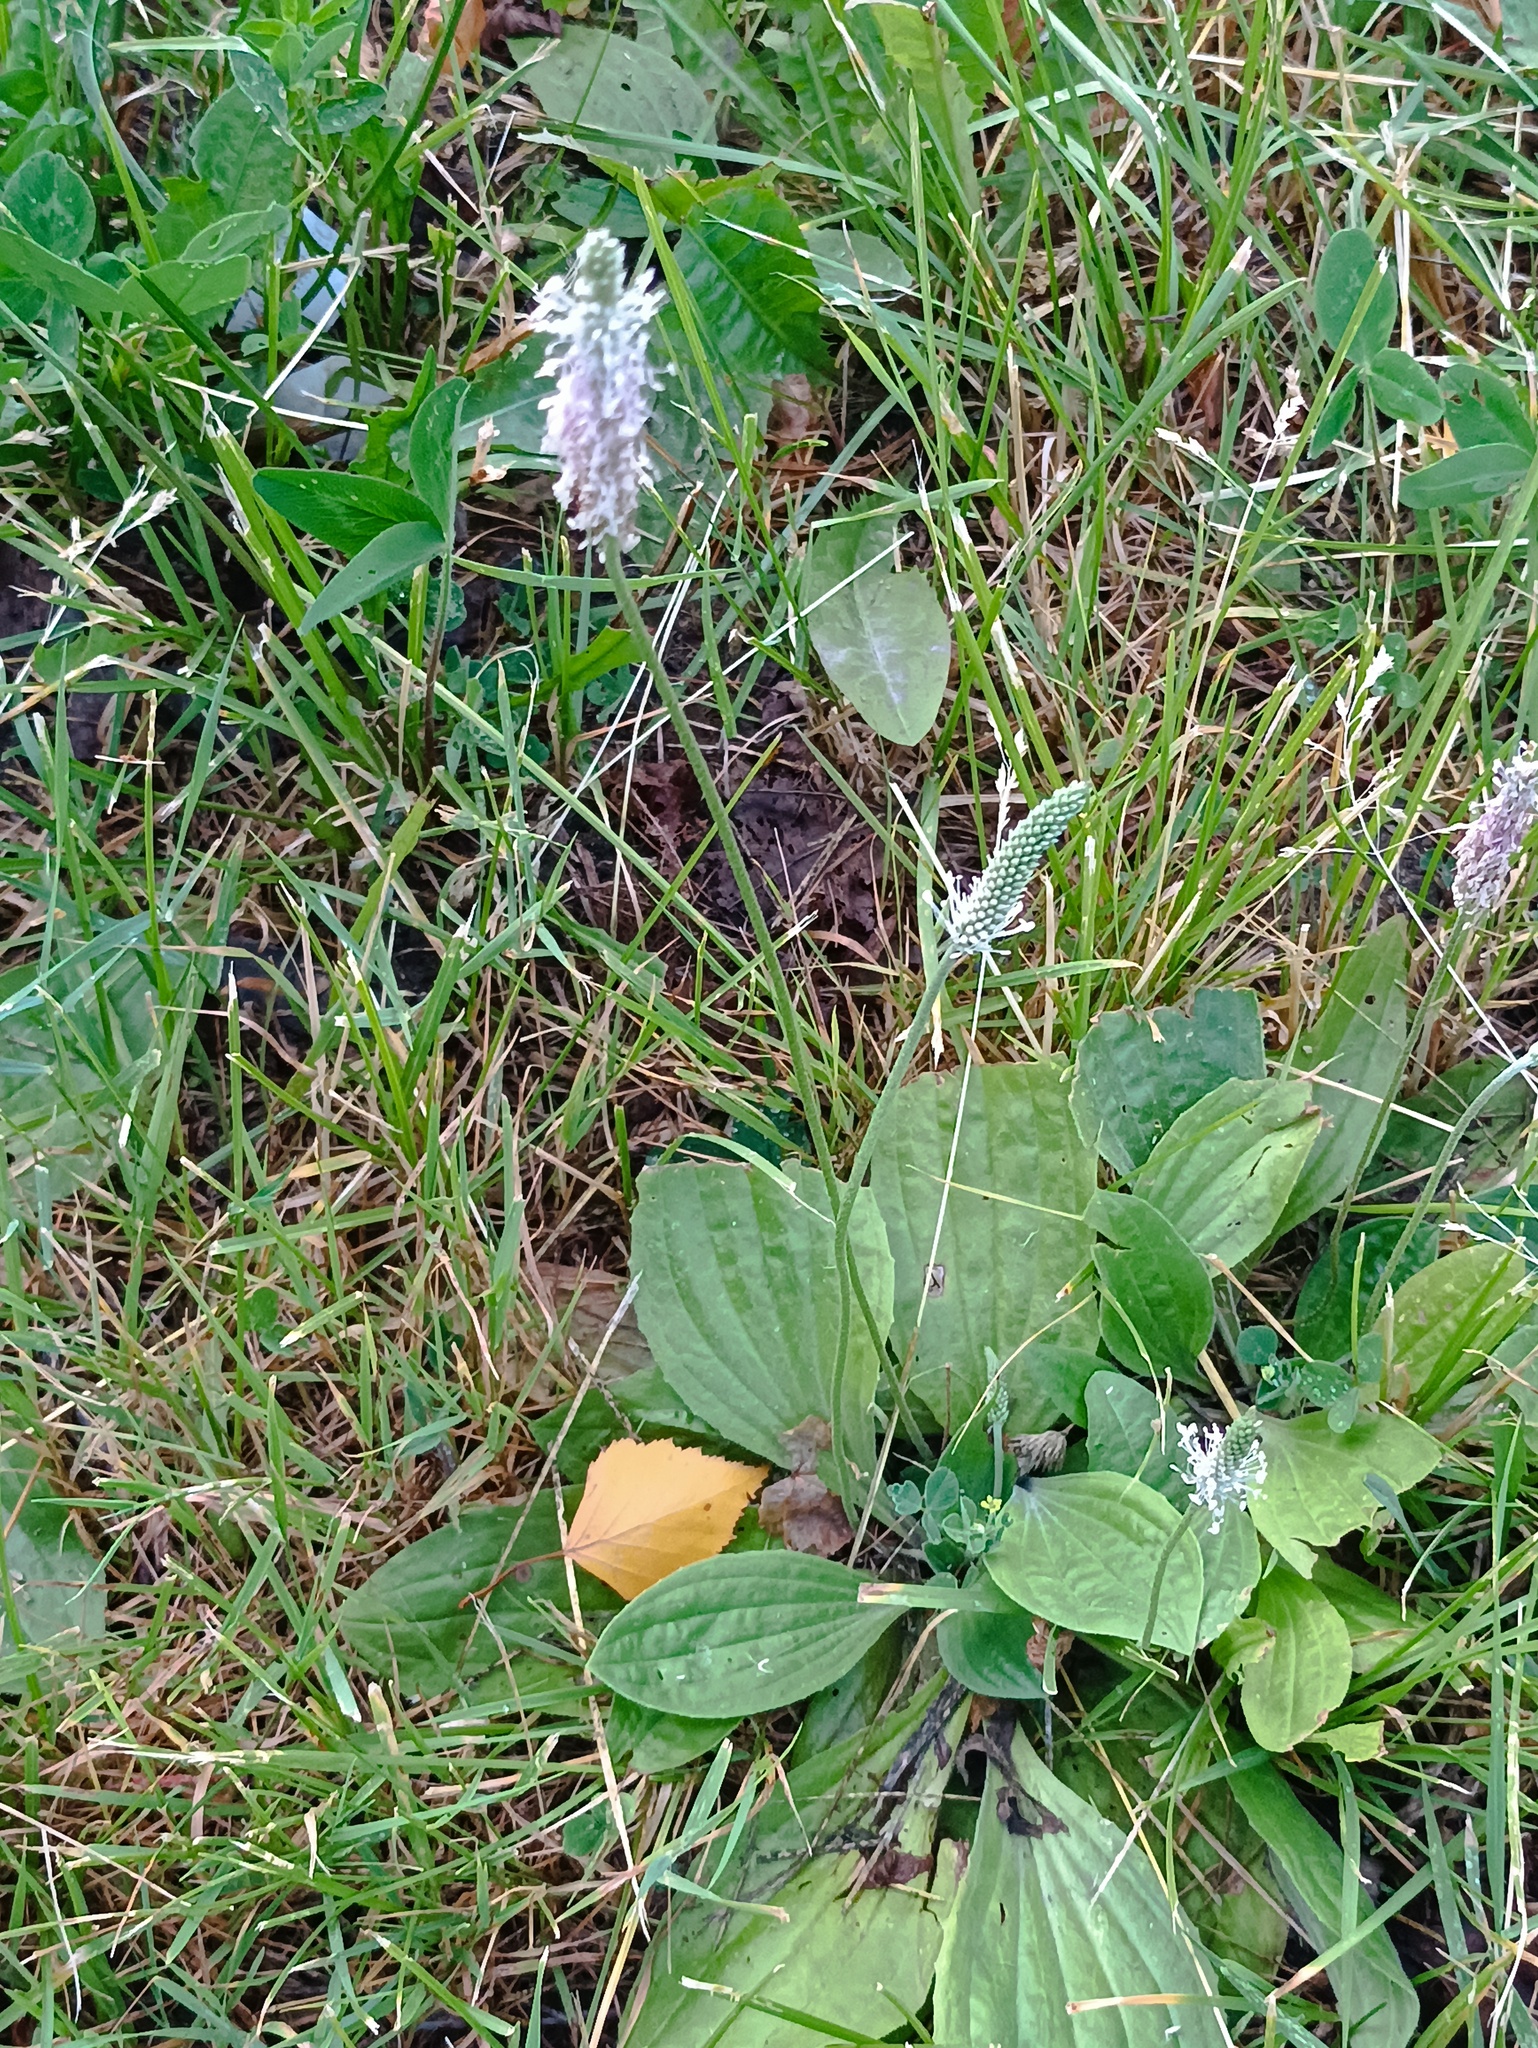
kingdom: Plantae
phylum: Tracheophyta
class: Magnoliopsida
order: Lamiales
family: Plantaginaceae
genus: Plantago
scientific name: Plantago media
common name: Hoary plantain
